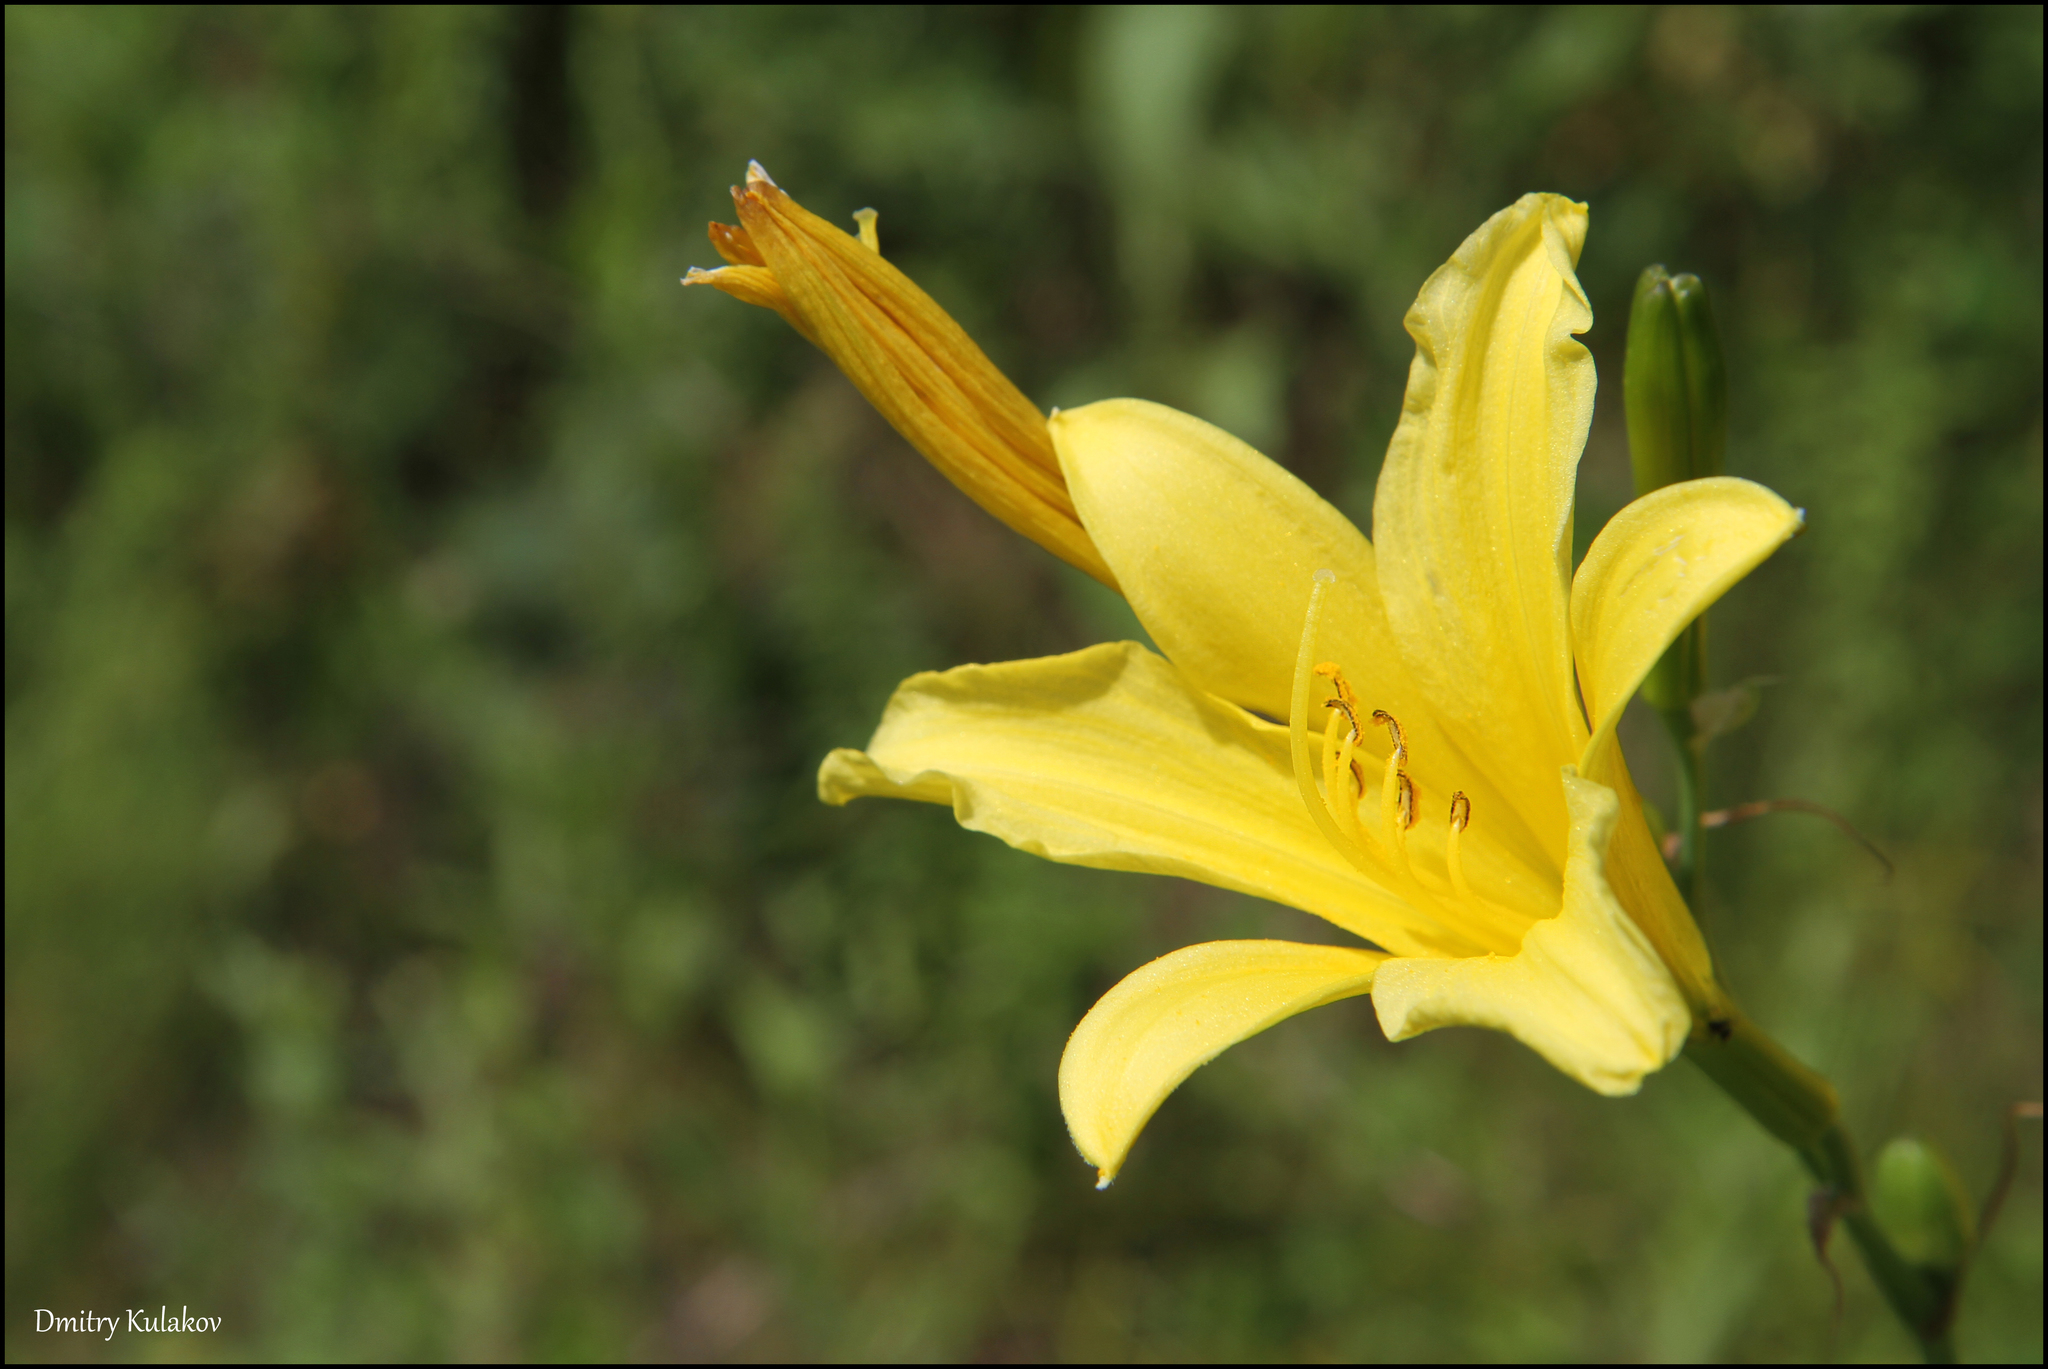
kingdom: Plantae
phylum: Tracheophyta
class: Liliopsida
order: Asparagales
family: Asphodelaceae
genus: Hemerocallis
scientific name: Hemerocallis minor
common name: Small daylily
